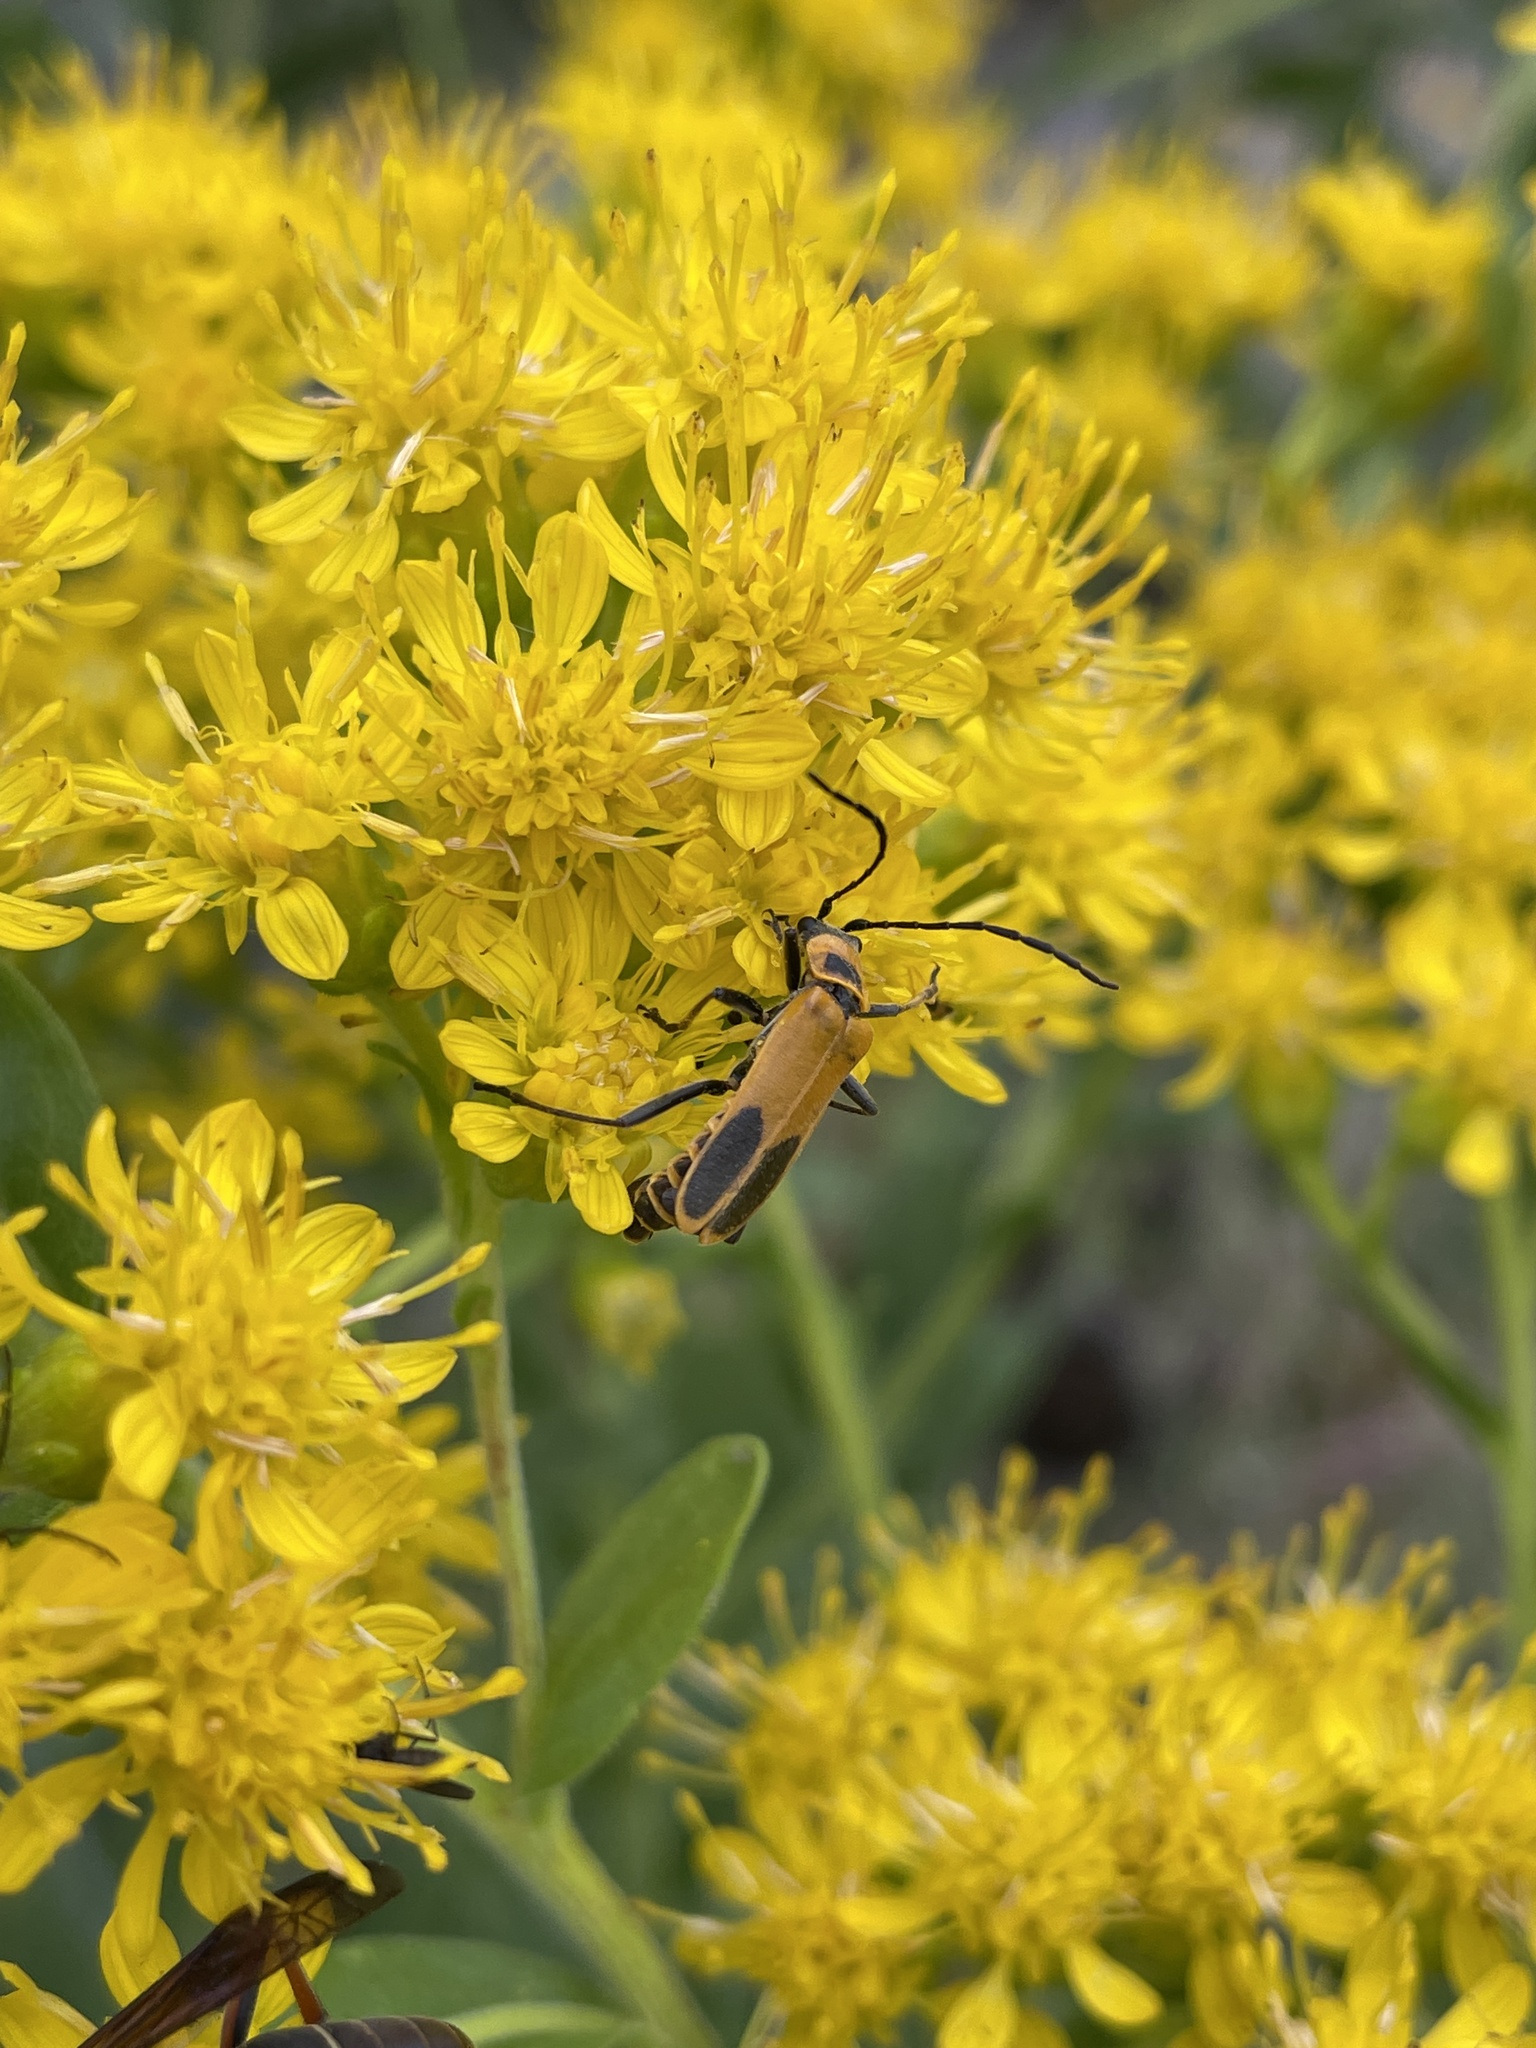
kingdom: Animalia
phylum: Arthropoda
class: Insecta
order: Coleoptera
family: Cantharidae
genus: Chauliognathus
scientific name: Chauliognathus pensylvanicus
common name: Goldenrod soldier beetle
